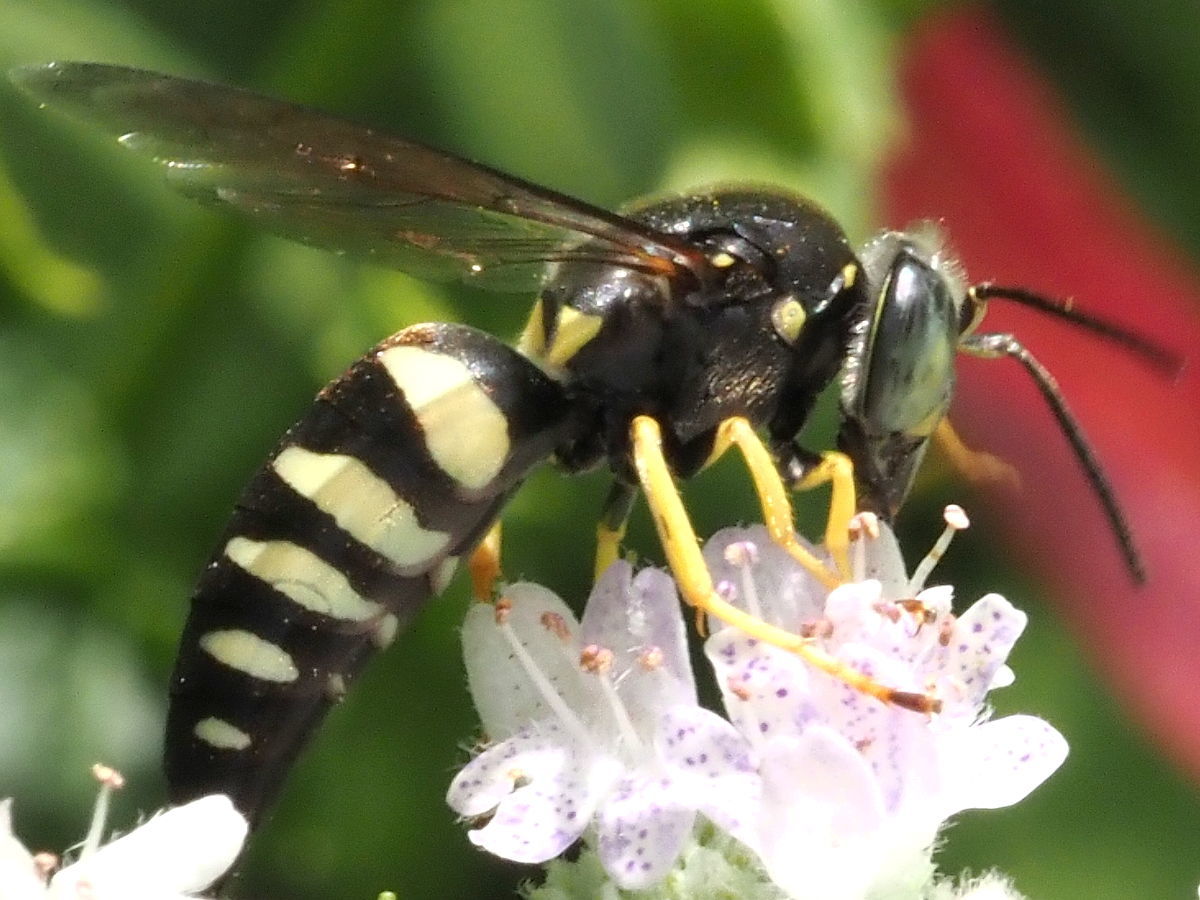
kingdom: Animalia
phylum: Arthropoda
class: Insecta
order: Hymenoptera
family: Crabronidae
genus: Bicyrtes
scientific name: Bicyrtes quadrifasciatus
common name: Four-banded stink bug hunter wasp
